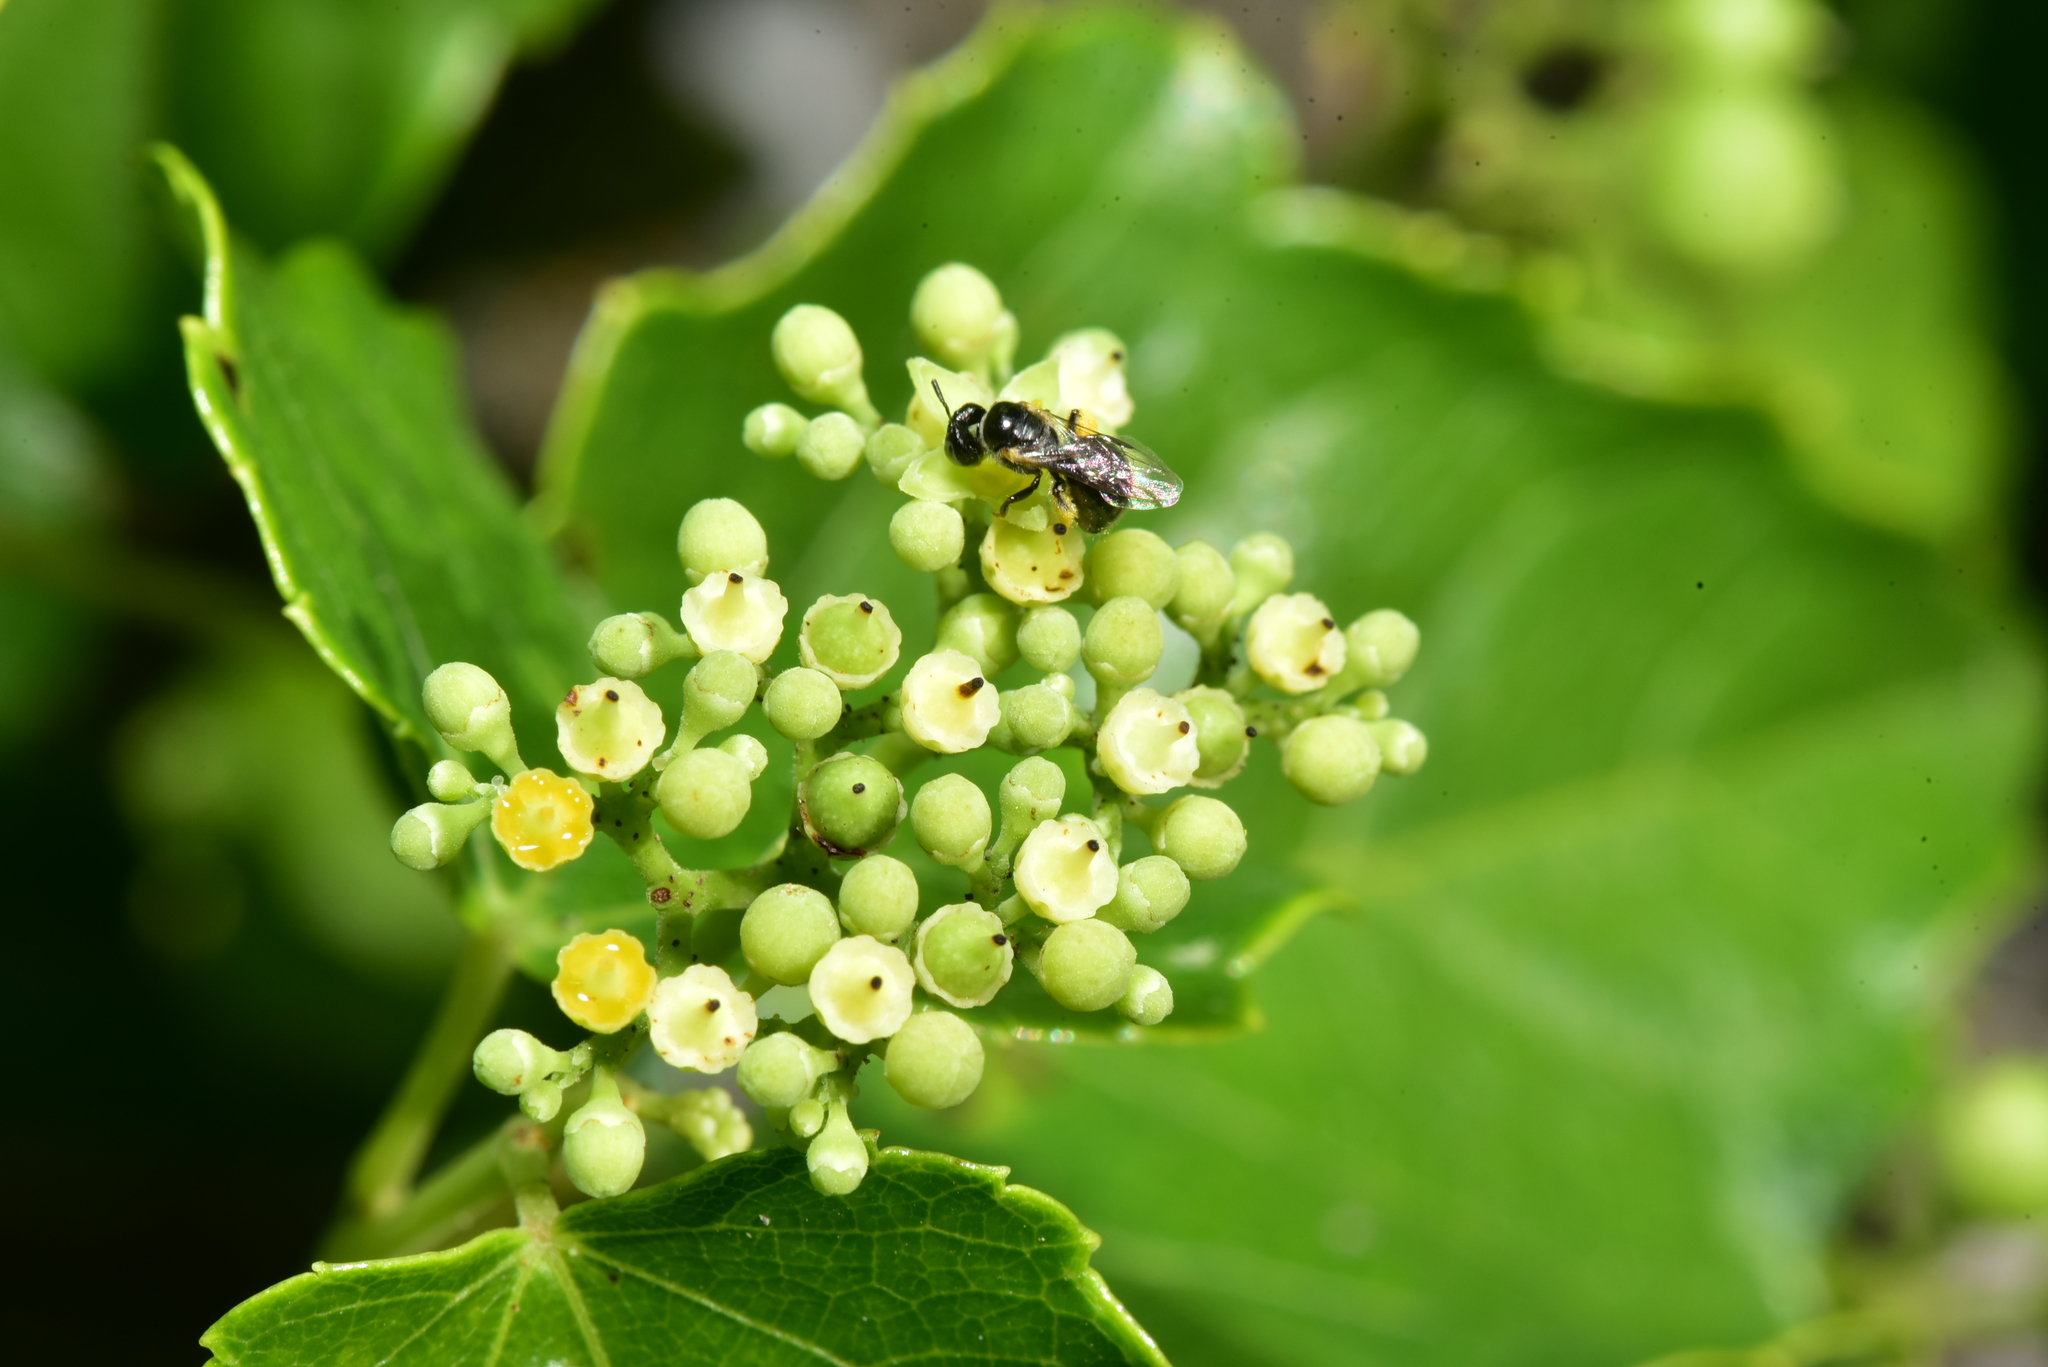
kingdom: Animalia
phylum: Arthropoda
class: Insecta
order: Hymenoptera
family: Apidae
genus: Braunsapis
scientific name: Braunsapis hewitti
